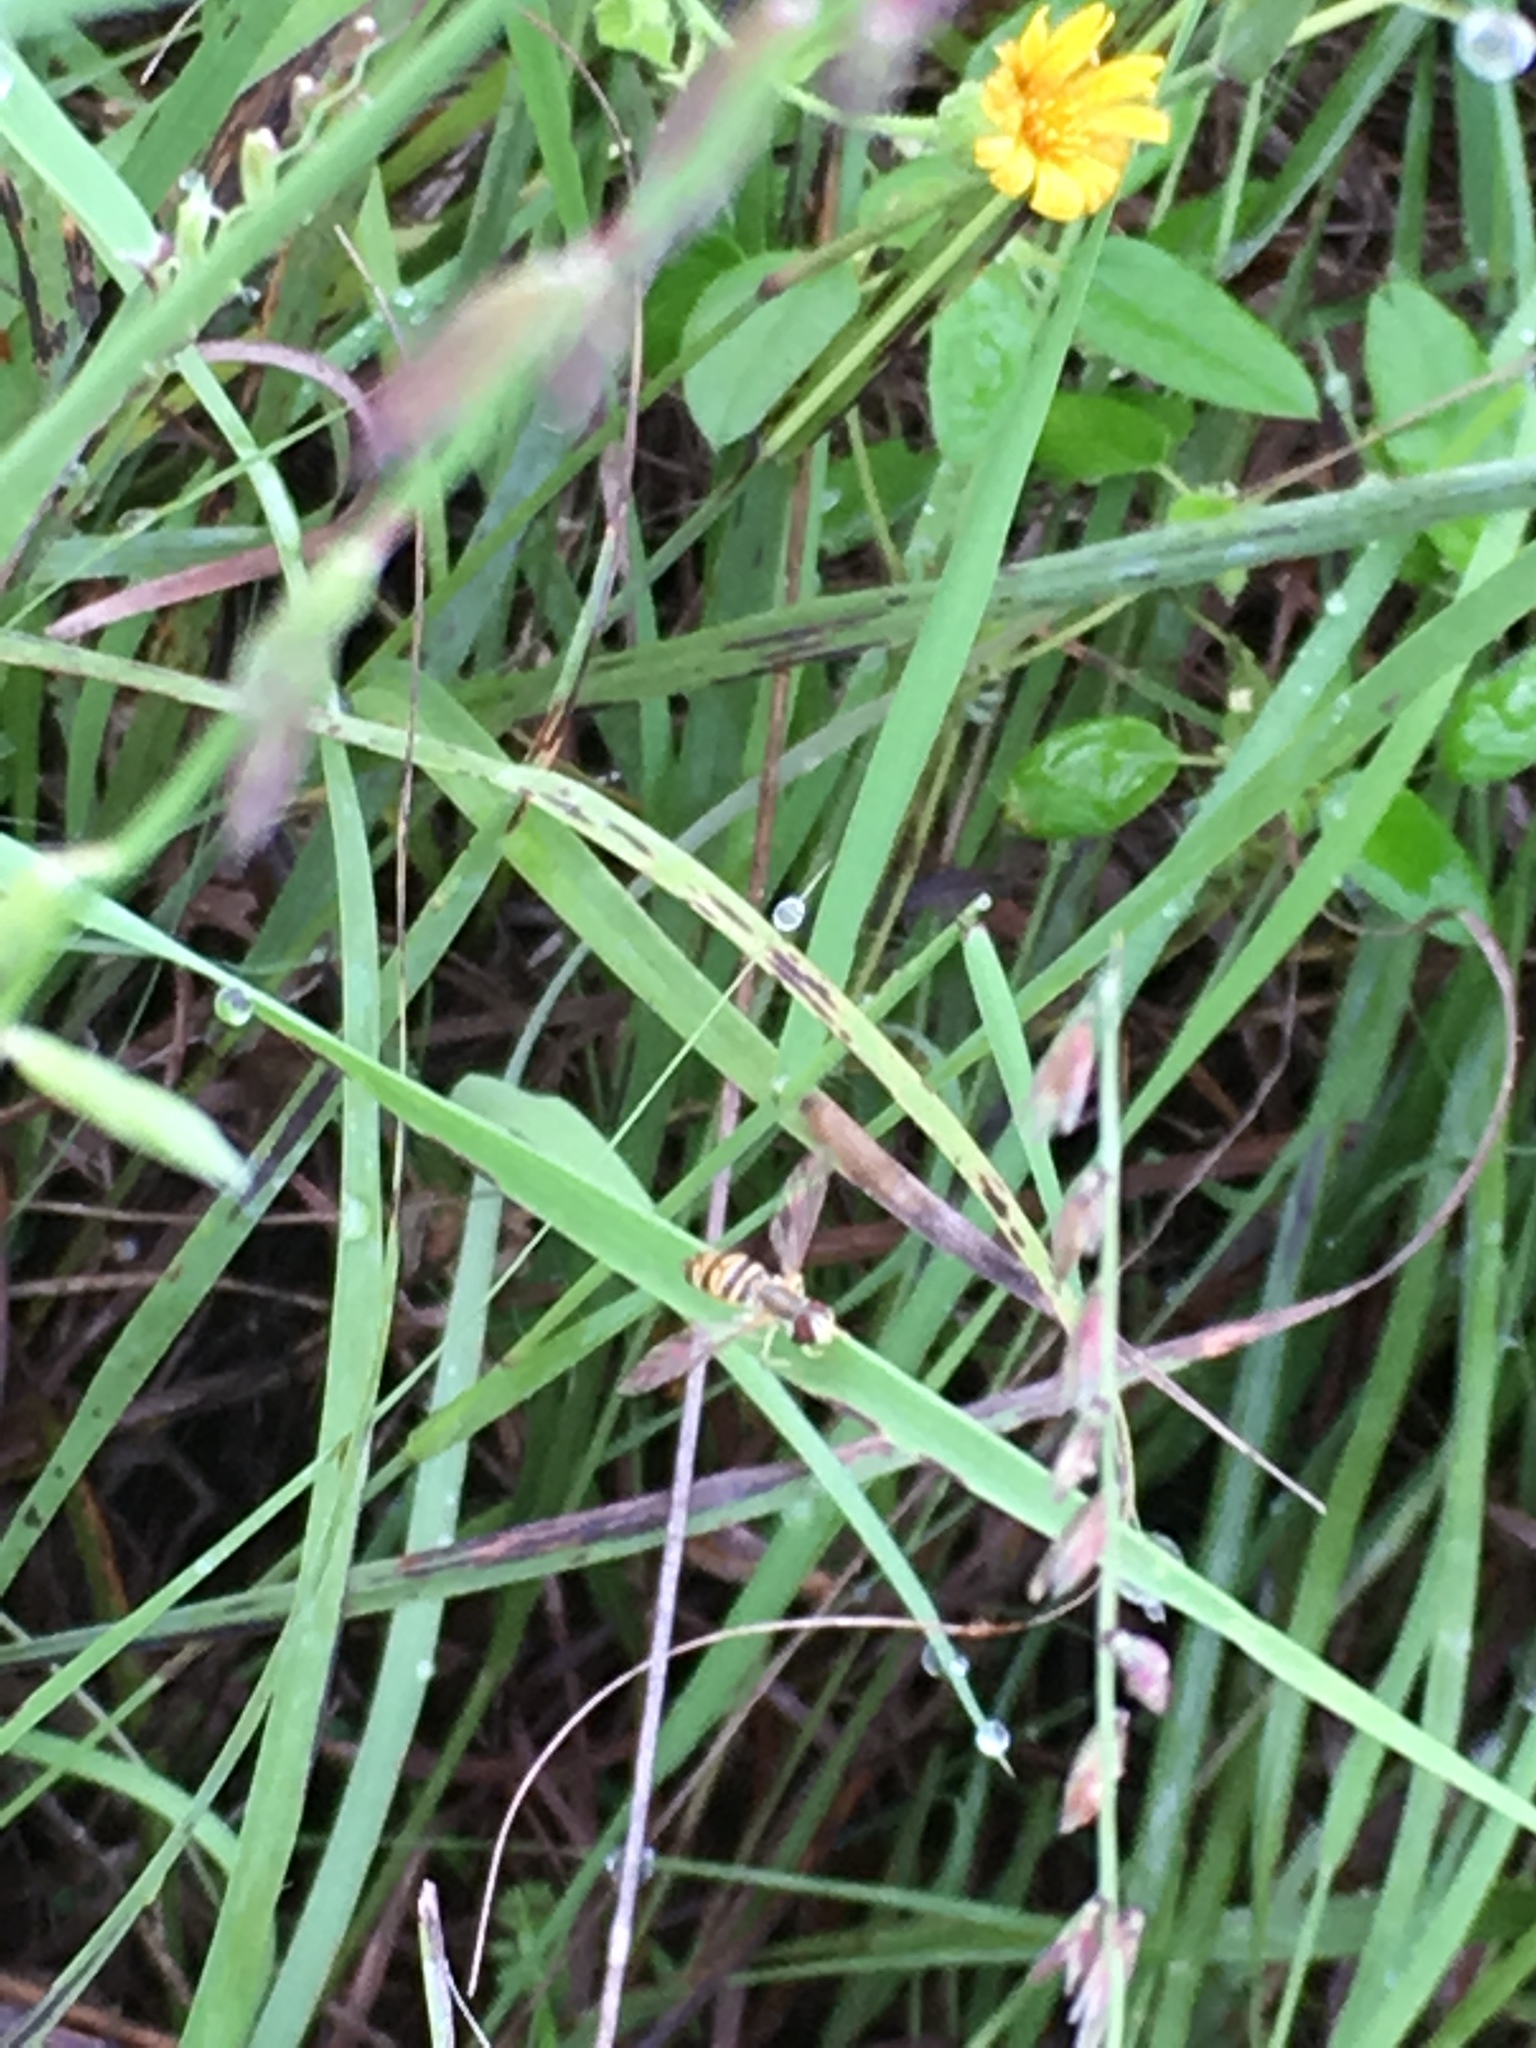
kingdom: Animalia
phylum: Arthropoda
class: Insecta
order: Diptera
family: Syrphidae
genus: Toxomerus
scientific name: Toxomerus politus
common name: Maize calligrapher
